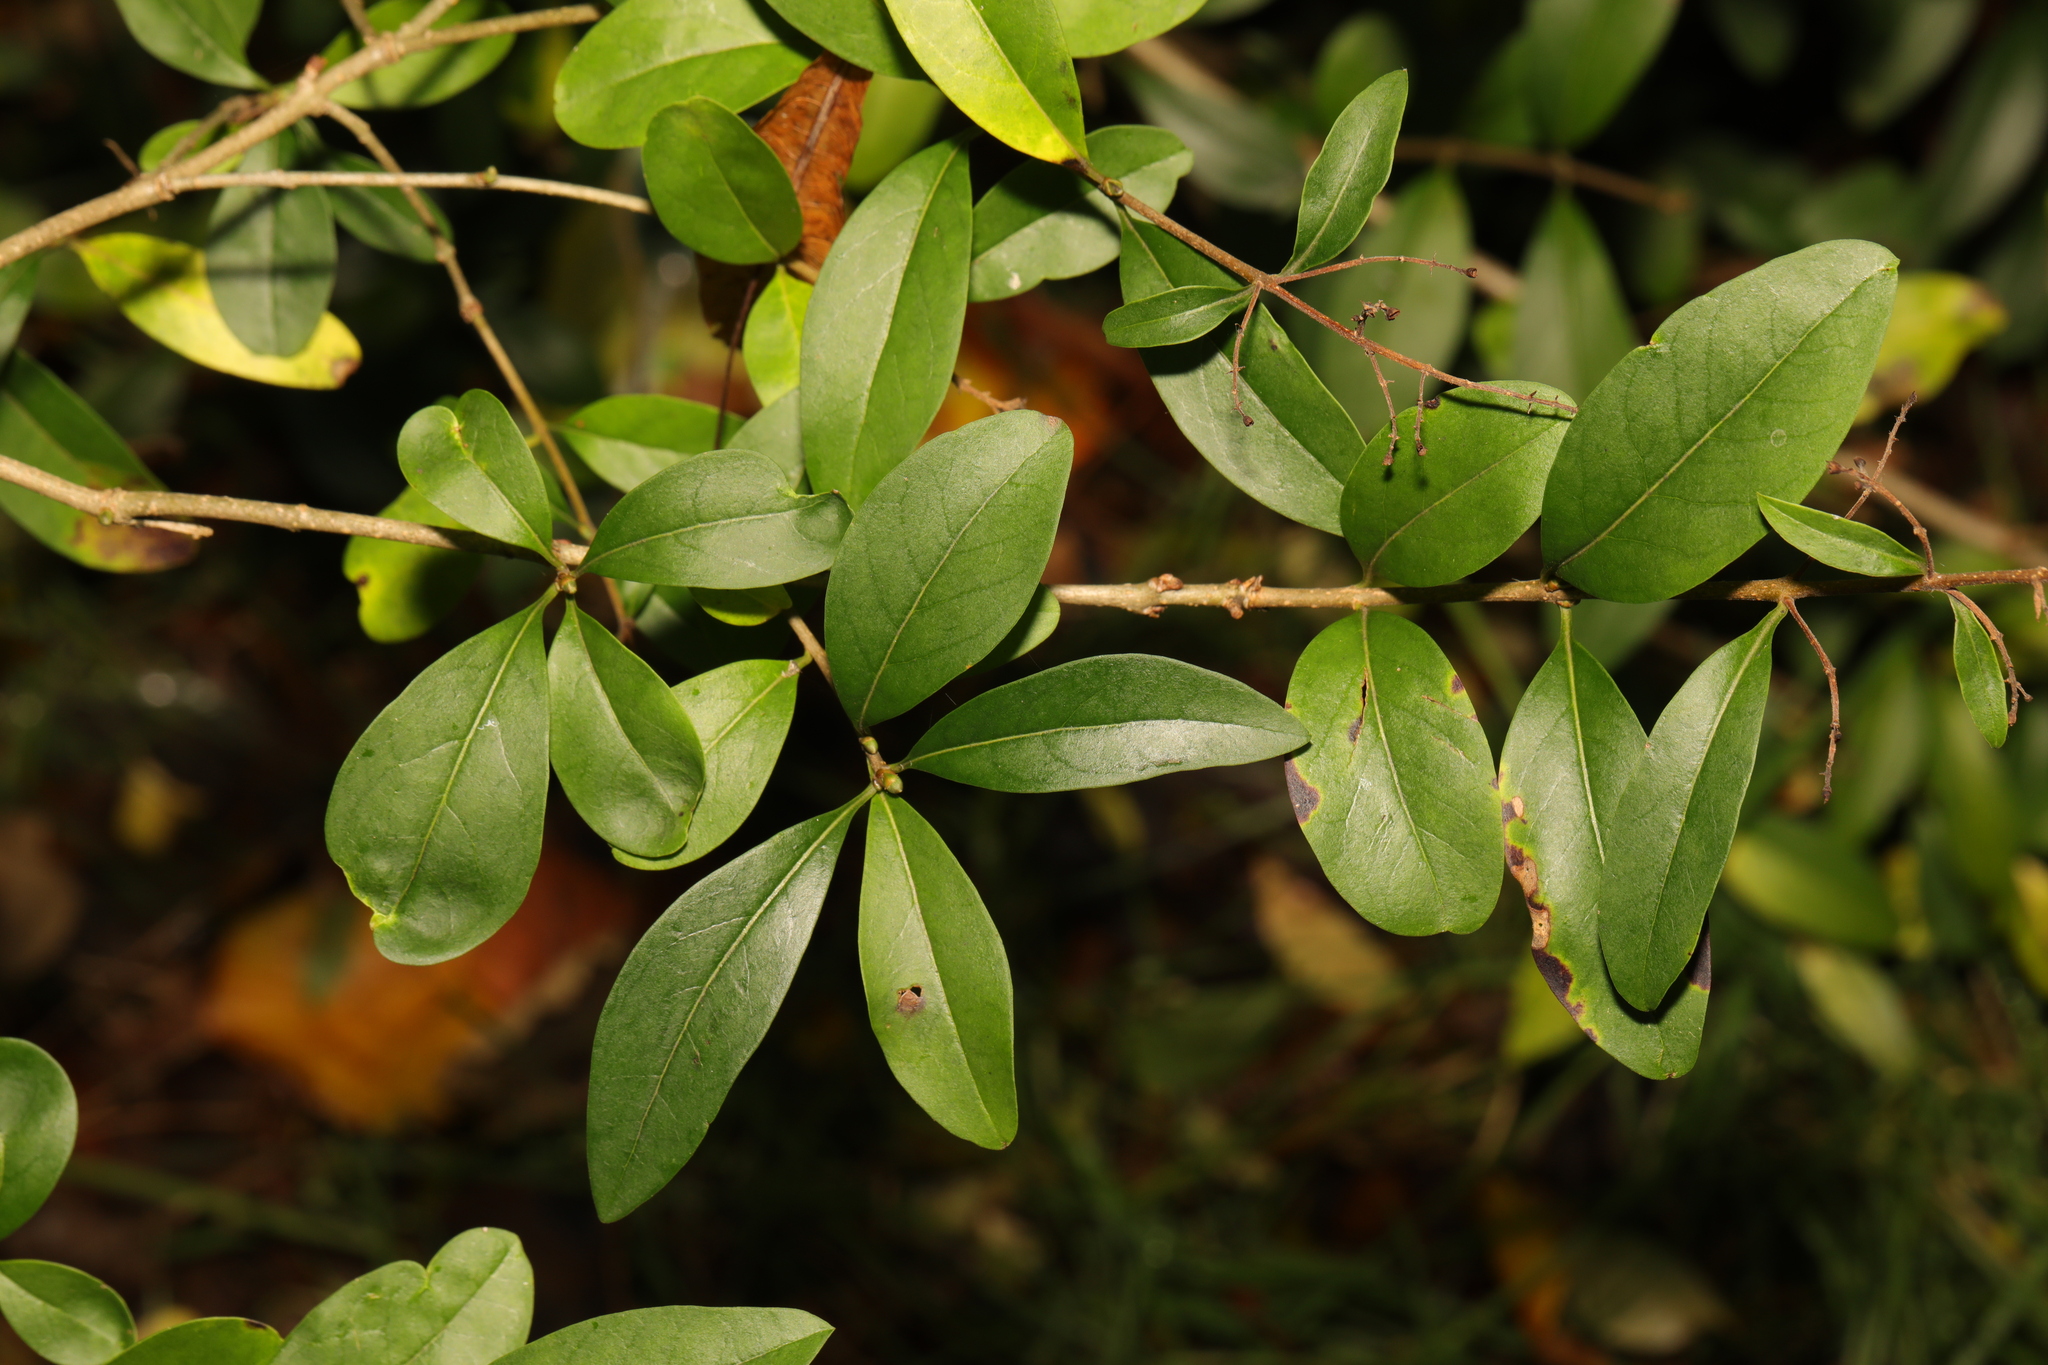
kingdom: Plantae
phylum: Tracheophyta
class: Magnoliopsida
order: Rosales
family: Rosaceae
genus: Pyracantha
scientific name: Pyracantha coccinea
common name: Firethorn
